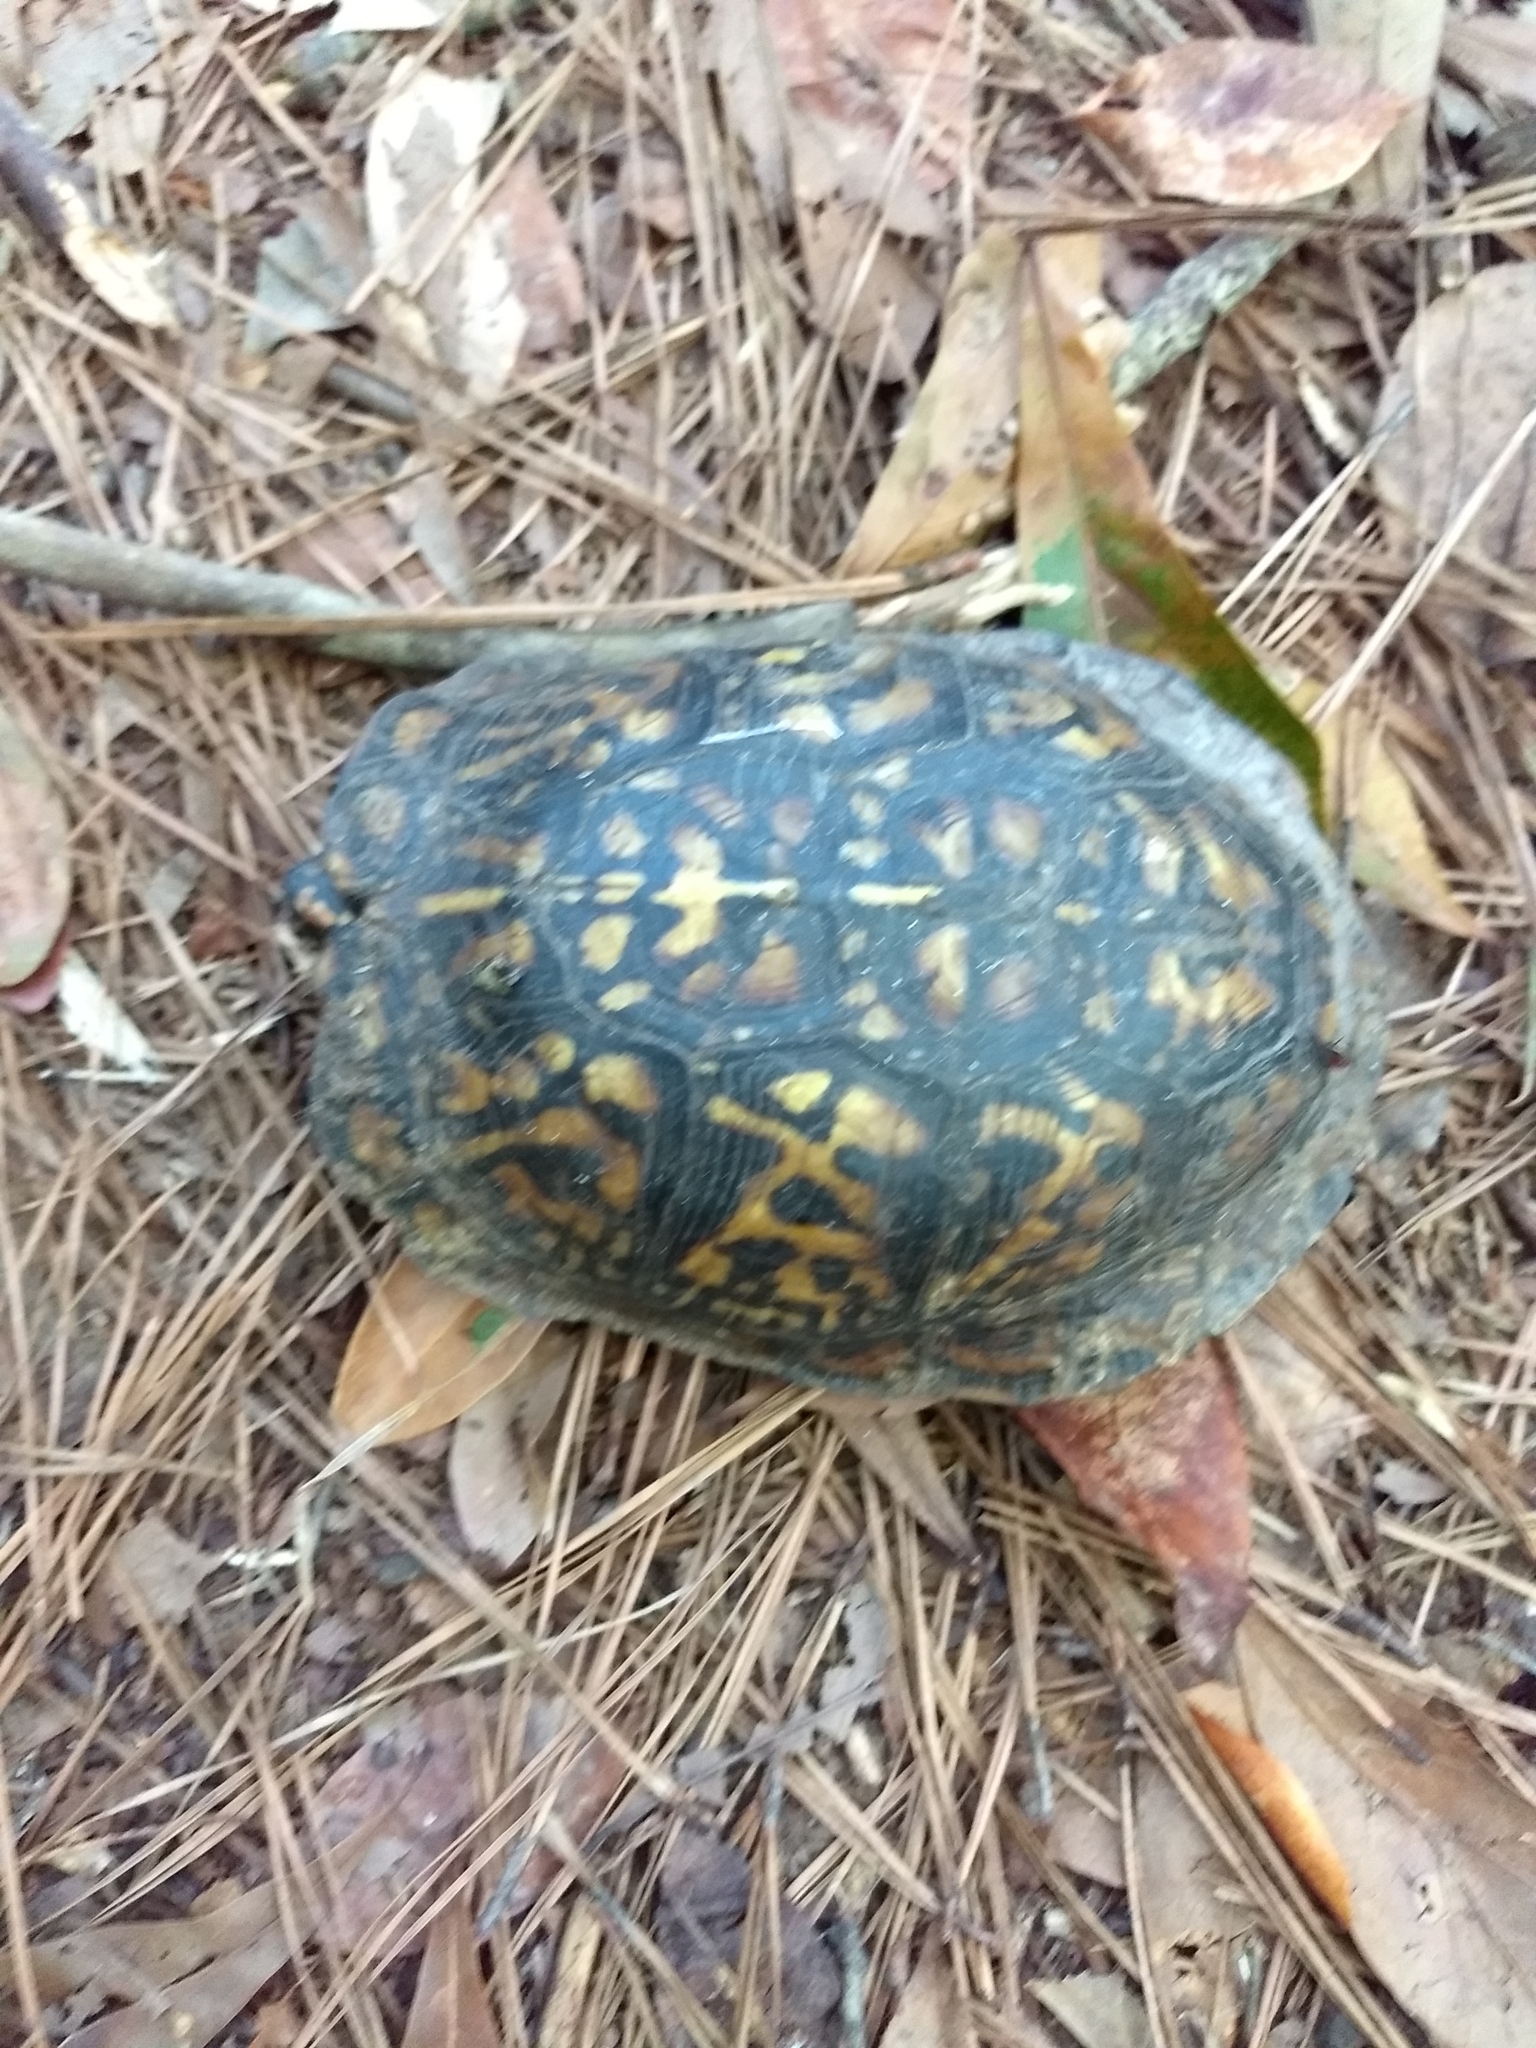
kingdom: Animalia
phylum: Chordata
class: Testudines
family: Emydidae
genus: Terrapene
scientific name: Terrapene carolina
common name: Common box turtle
